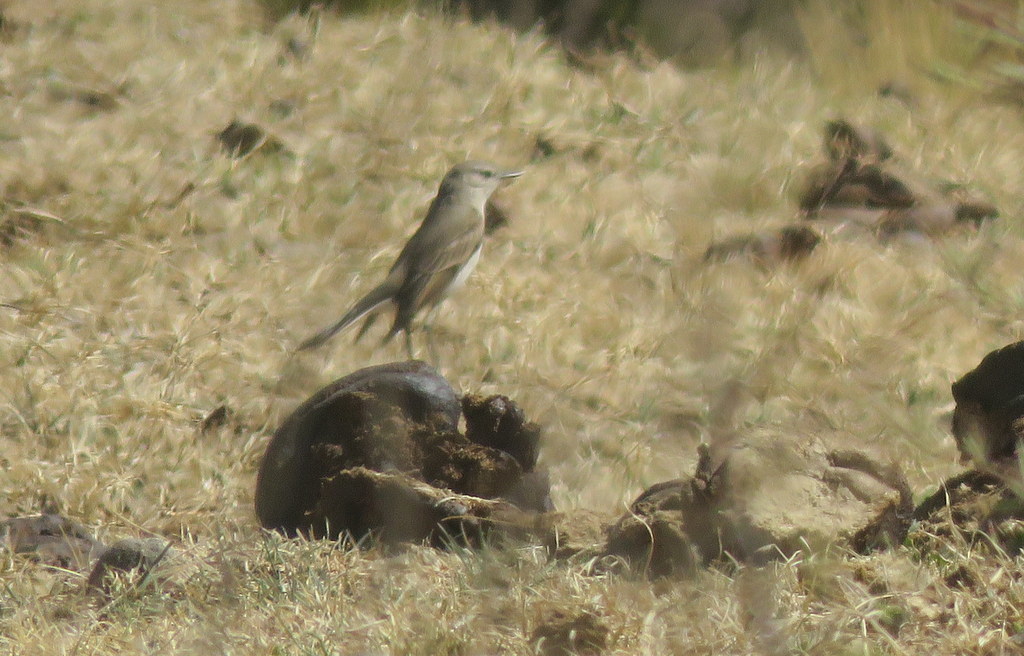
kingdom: Animalia
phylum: Chordata
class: Aves
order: Passeriformes
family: Tyrannidae
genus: Muscisaxicola
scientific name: Muscisaxicola maculirostris
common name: Spot-billed ground tyrant
